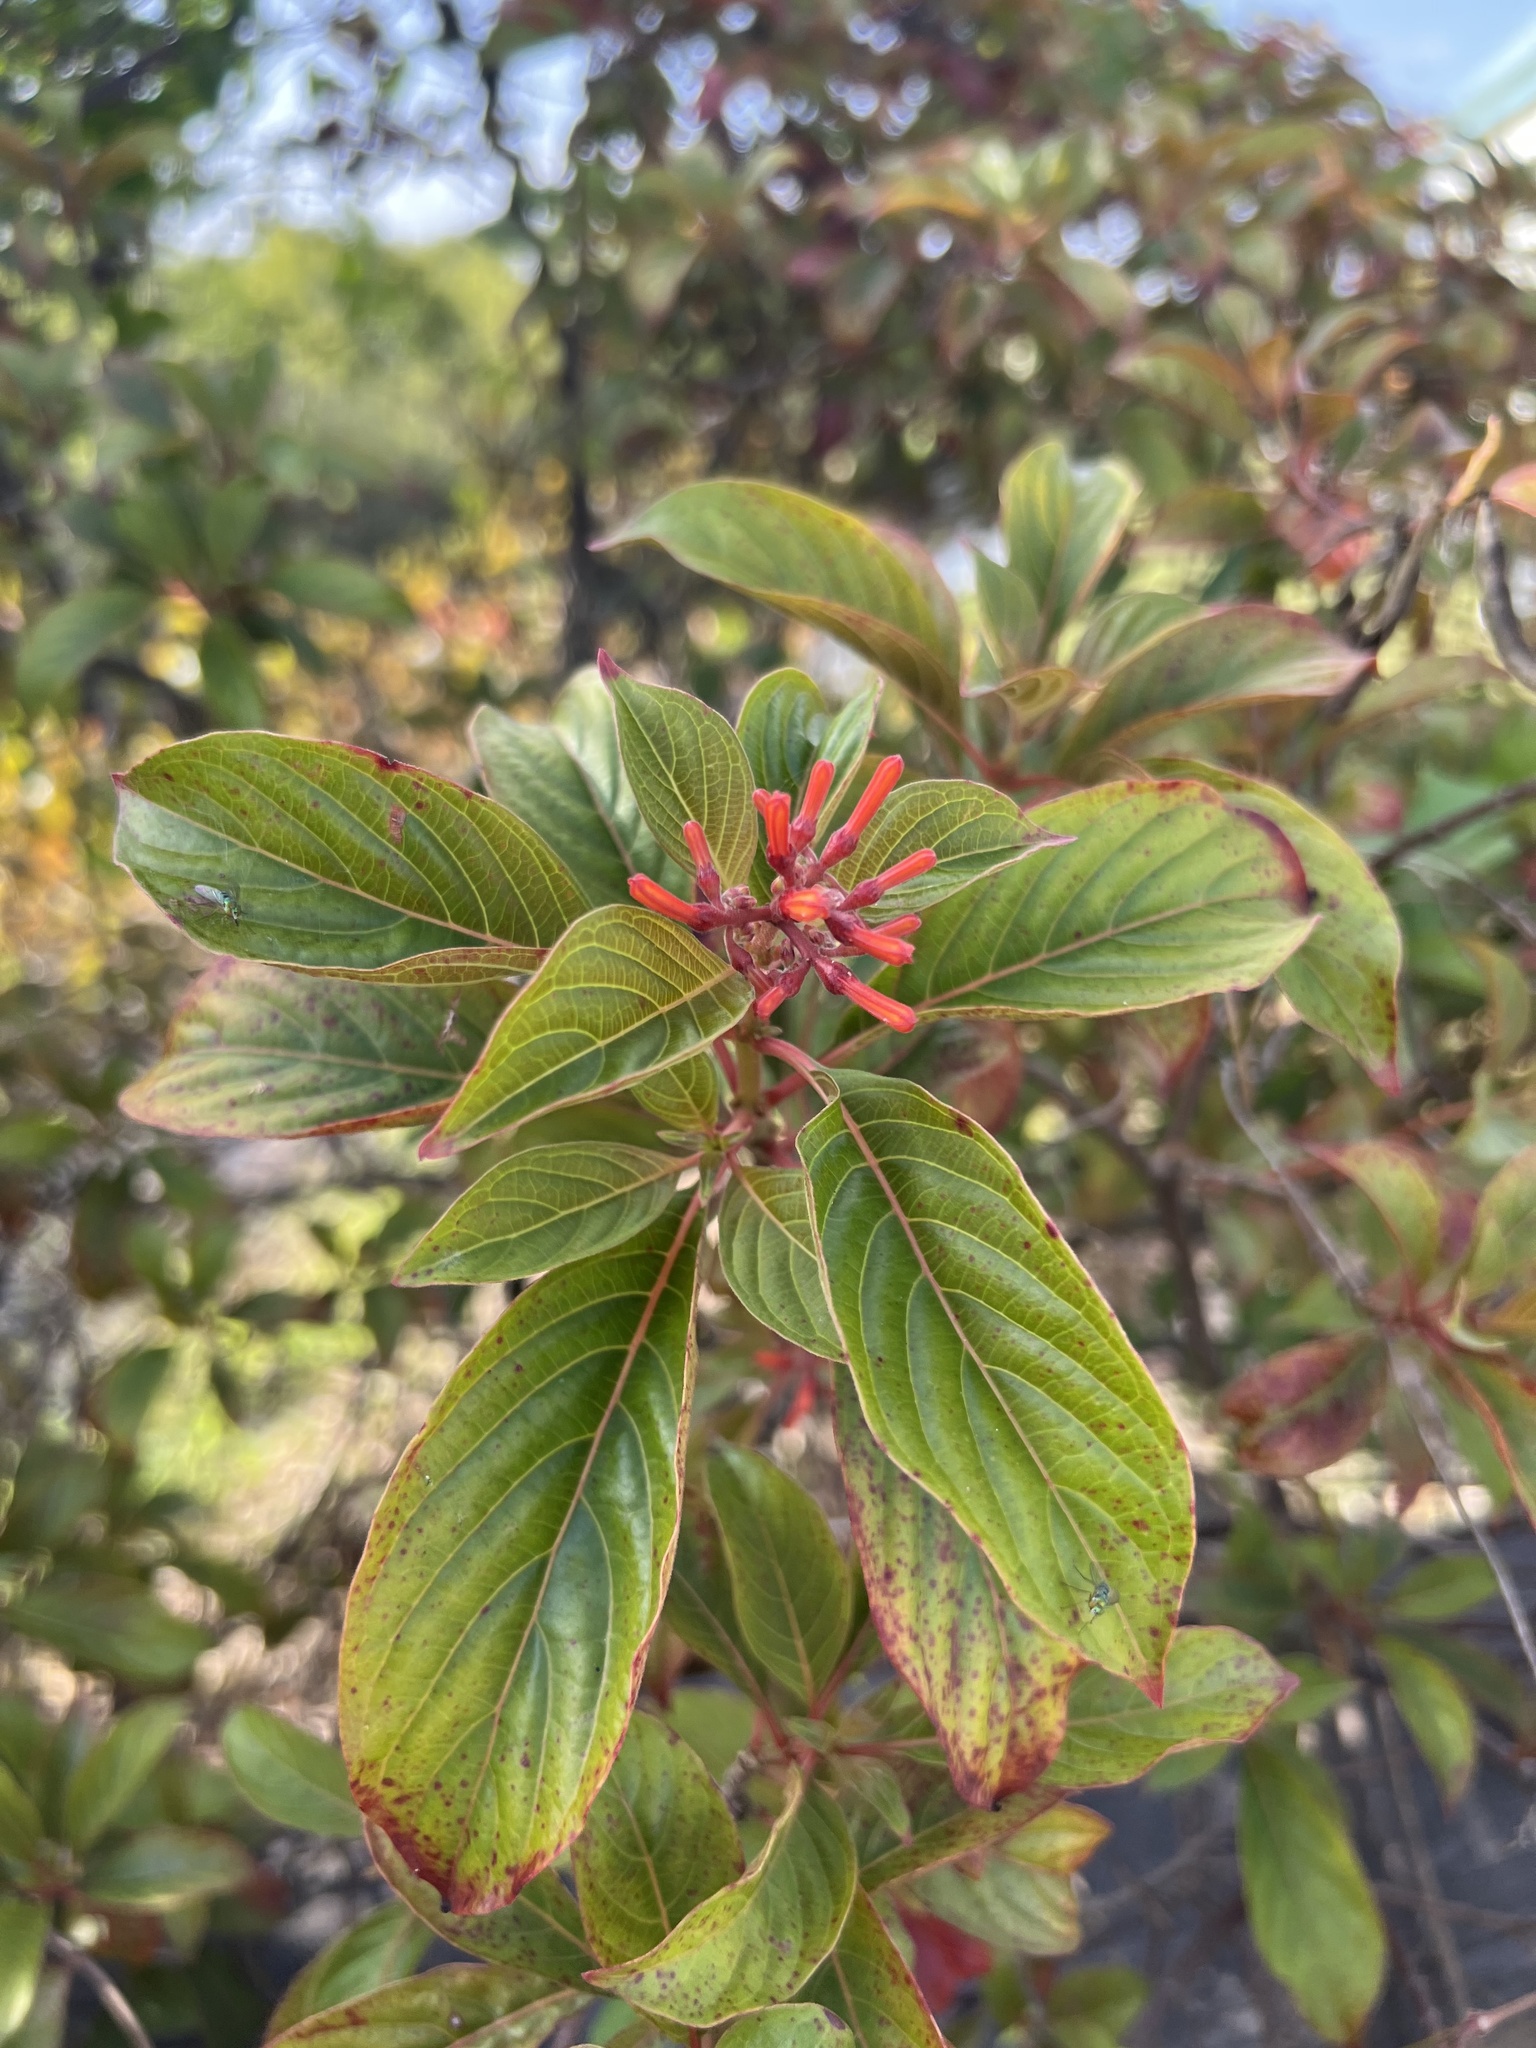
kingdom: Plantae
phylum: Tracheophyta
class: Magnoliopsida
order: Gentianales
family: Rubiaceae
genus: Hamelia
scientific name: Hamelia patens
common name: Redhead
